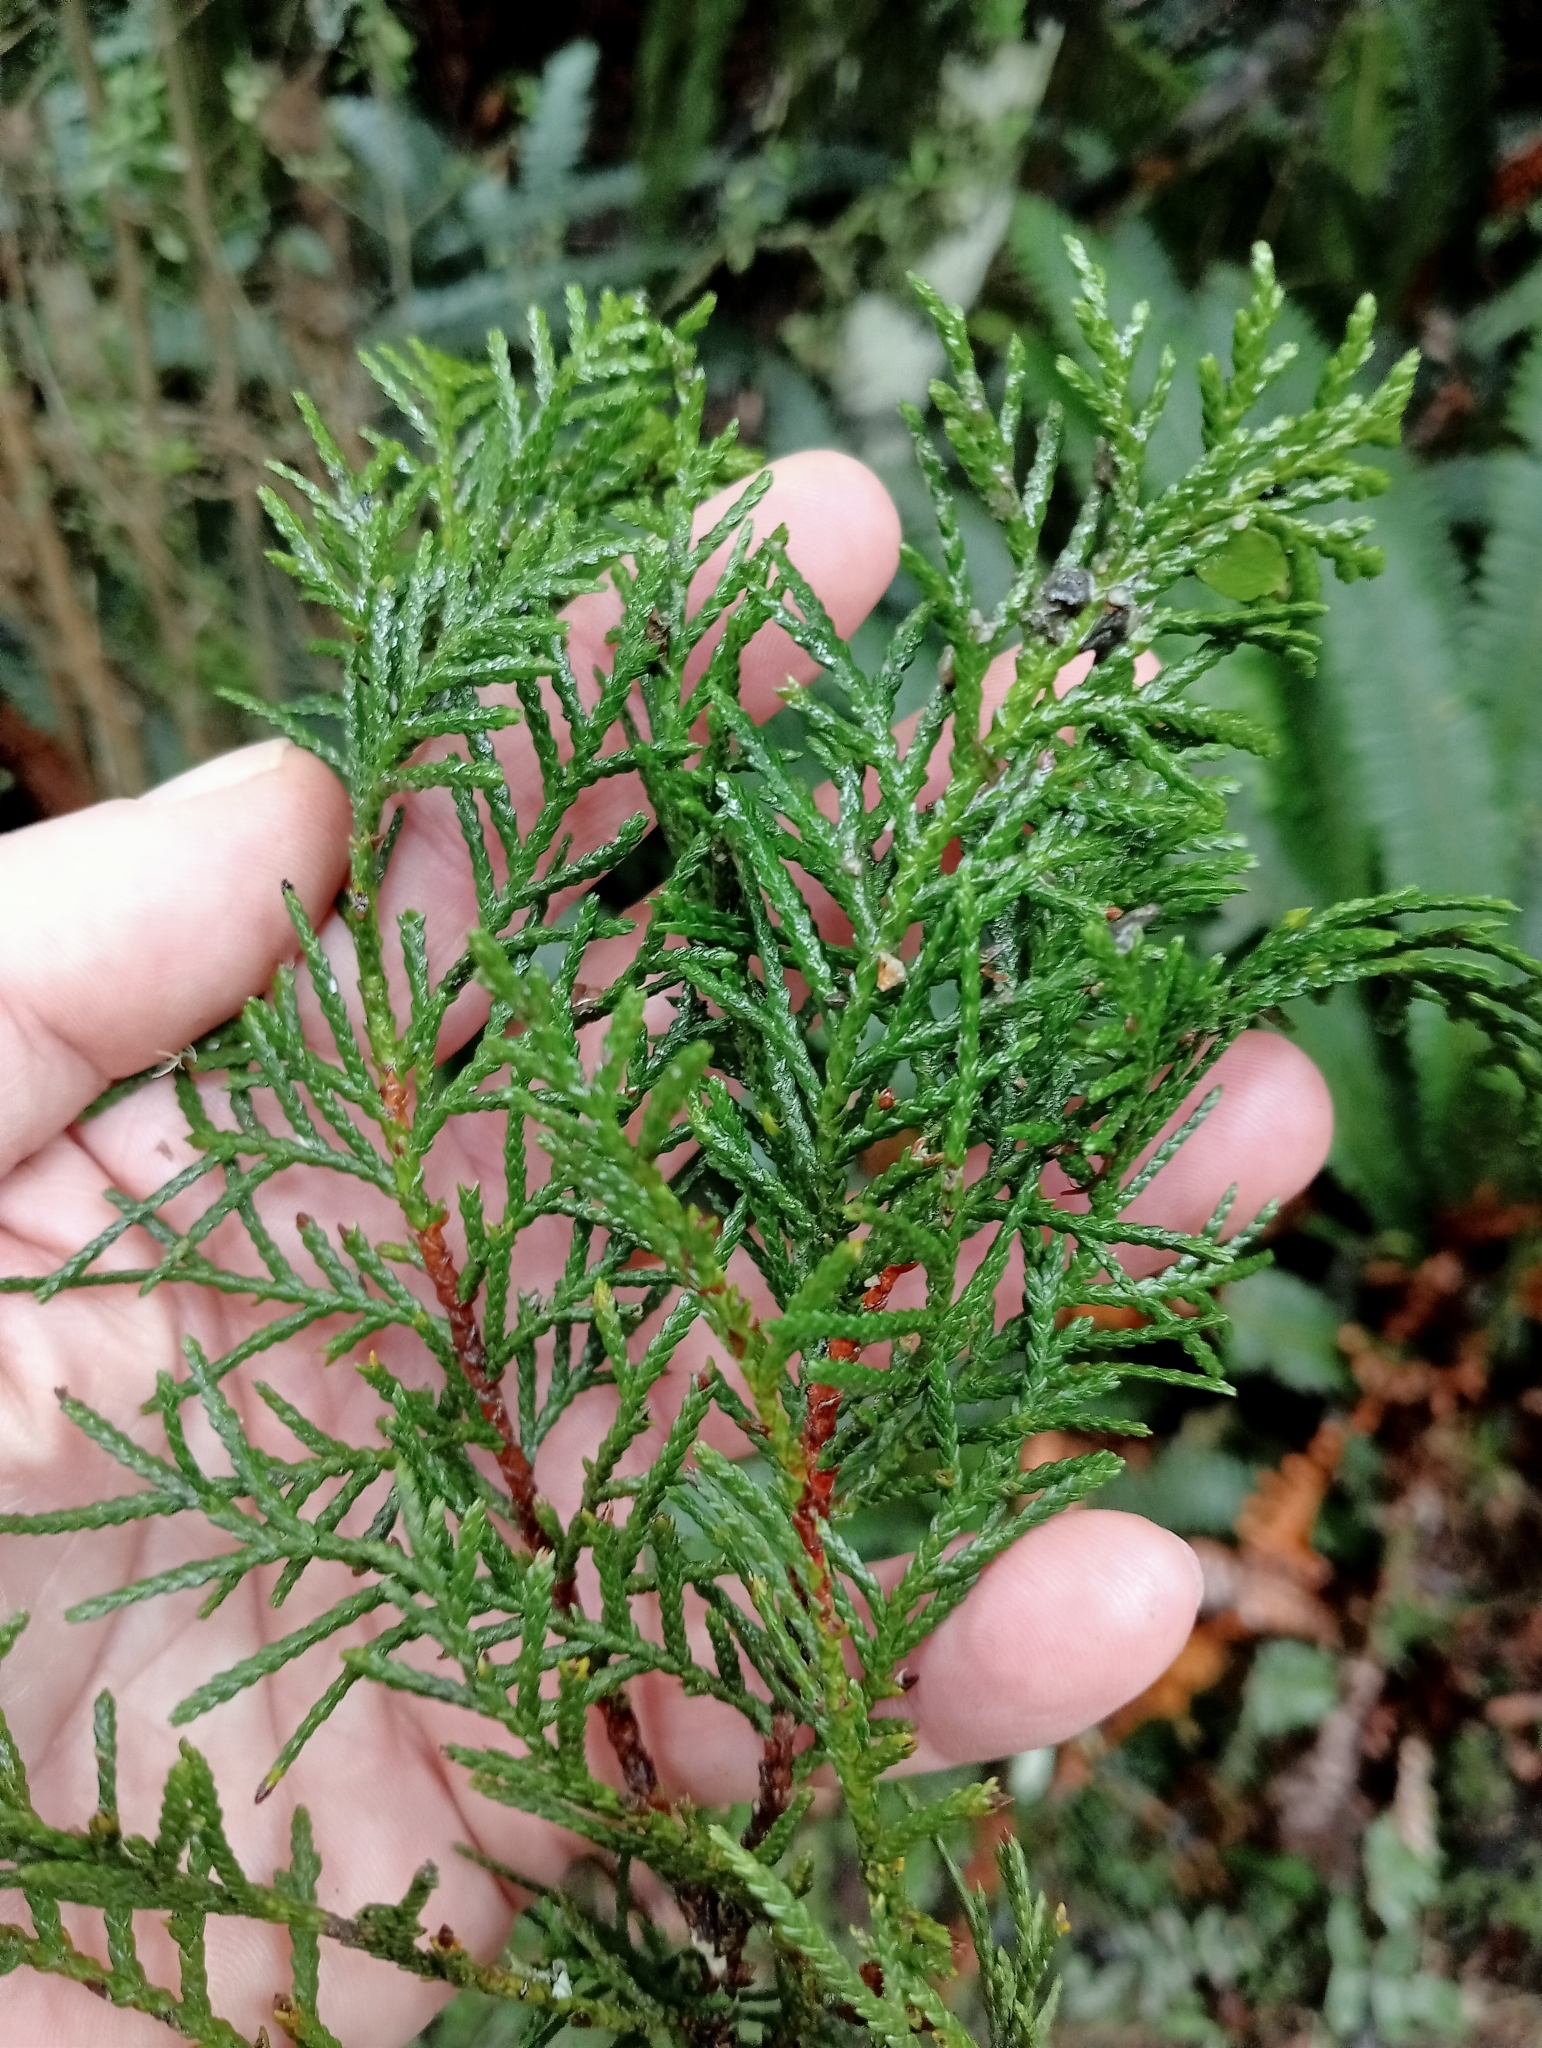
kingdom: Plantae
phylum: Tracheophyta
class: Pinopsida
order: Pinales
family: Cupressaceae
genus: Libocedrus
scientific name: Libocedrus bidwillii
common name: Cedar
